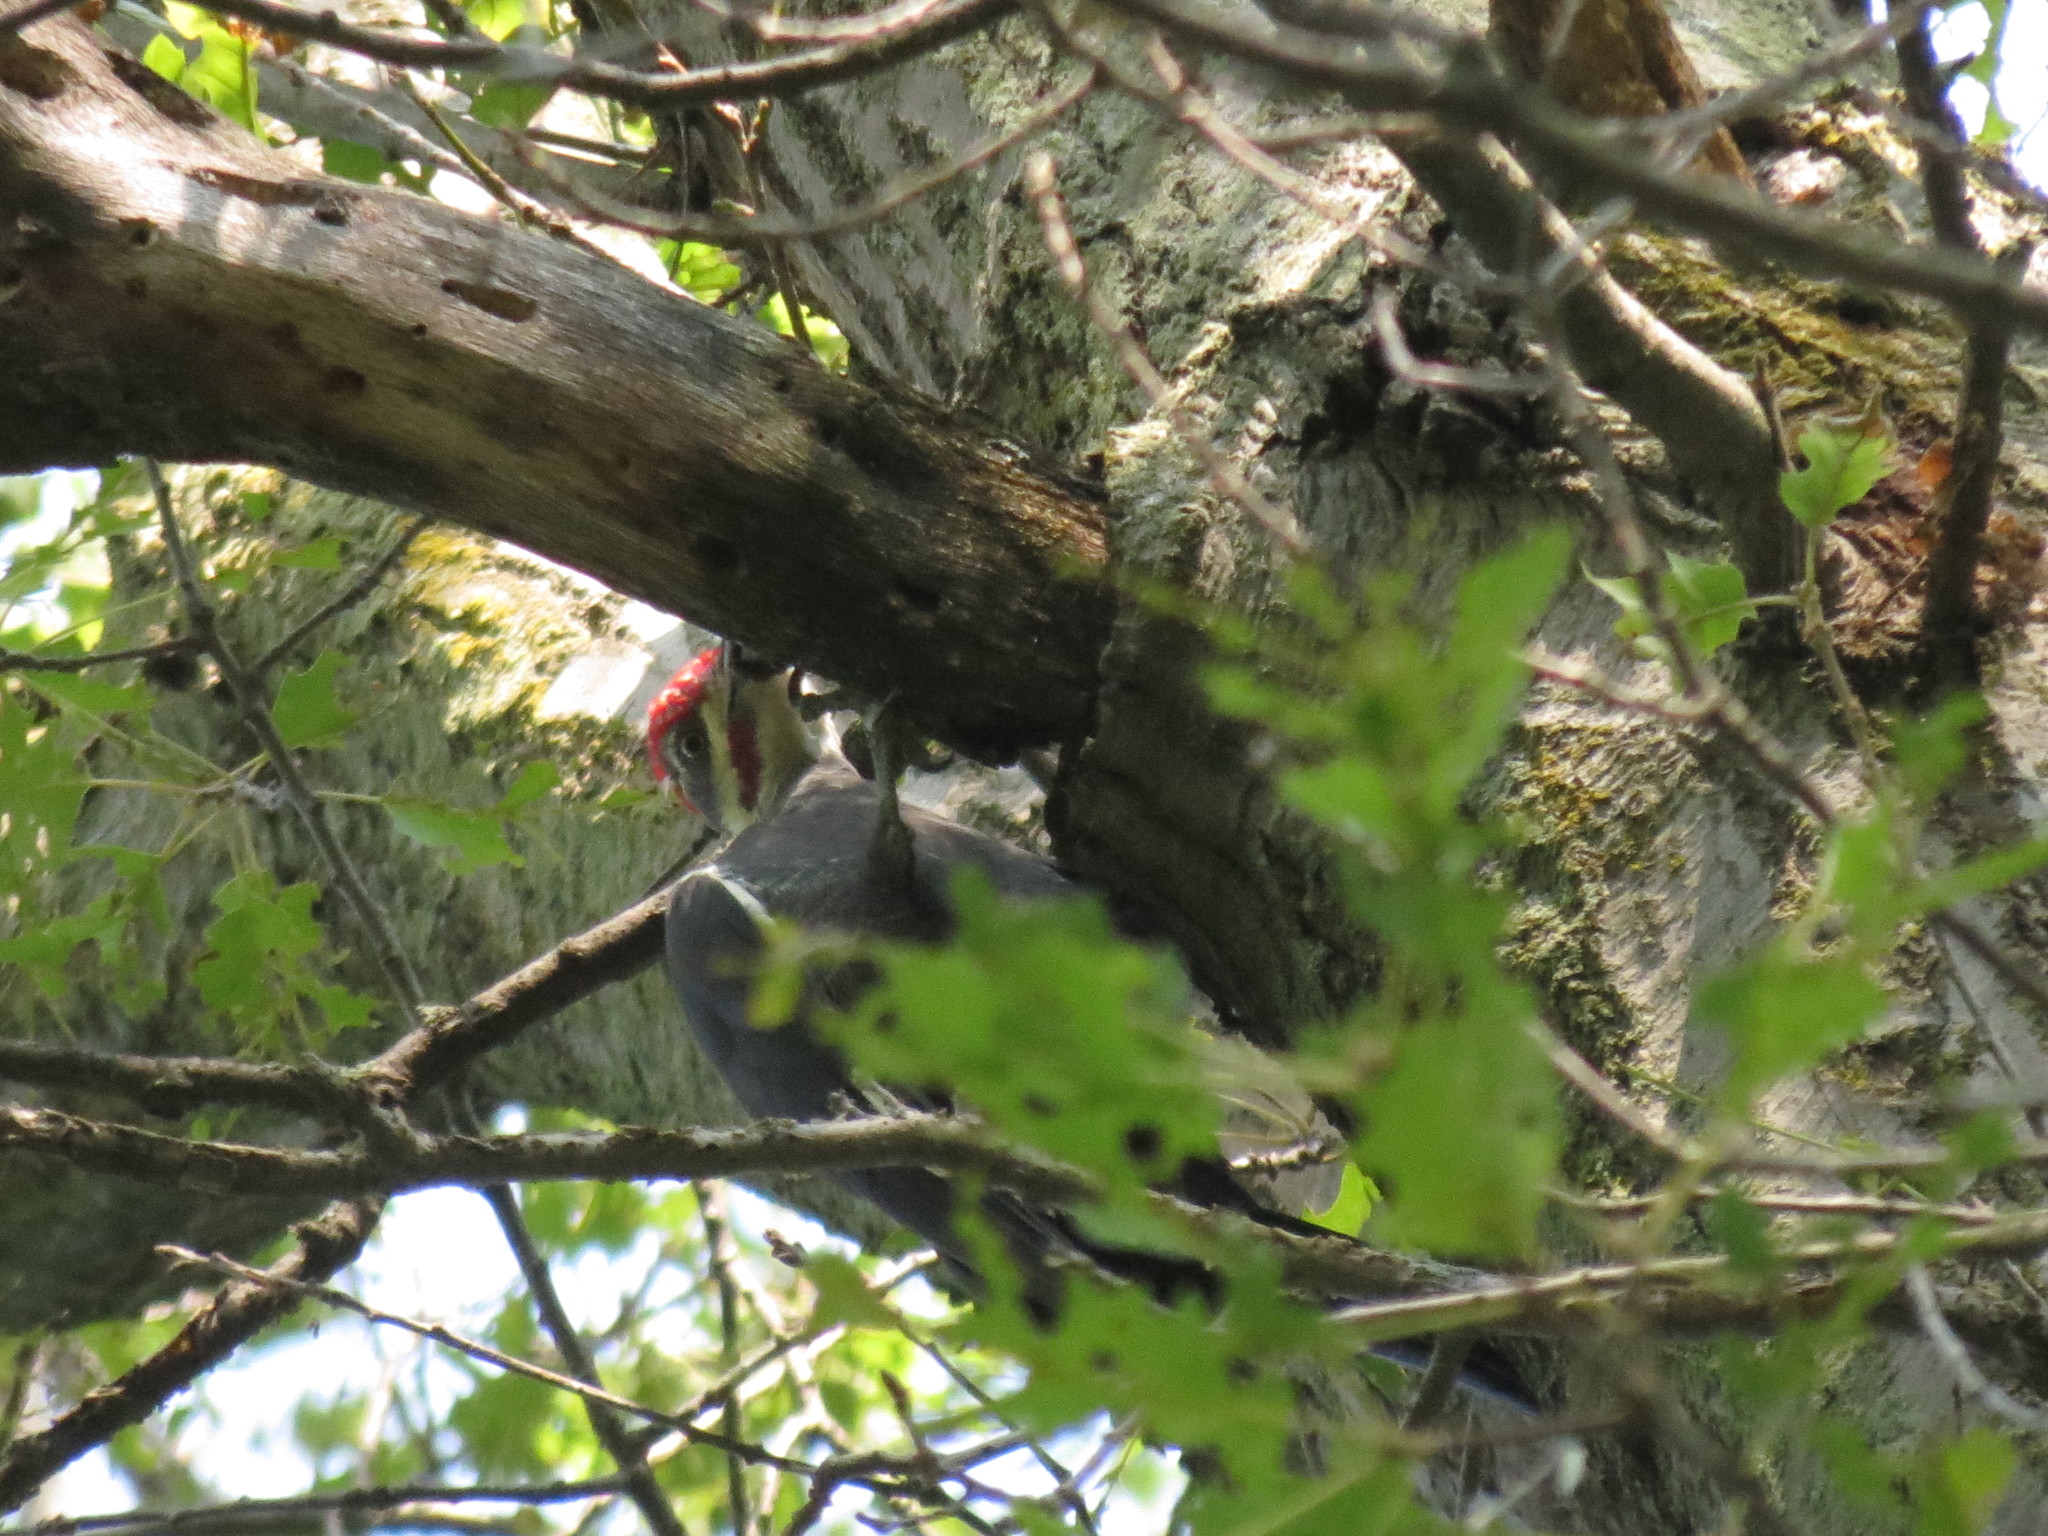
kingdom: Animalia
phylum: Chordata
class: Aves
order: Piciformes
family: Picidae
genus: Dryocopus
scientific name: Dryocopus pileatus
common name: Pileated woodpecker
